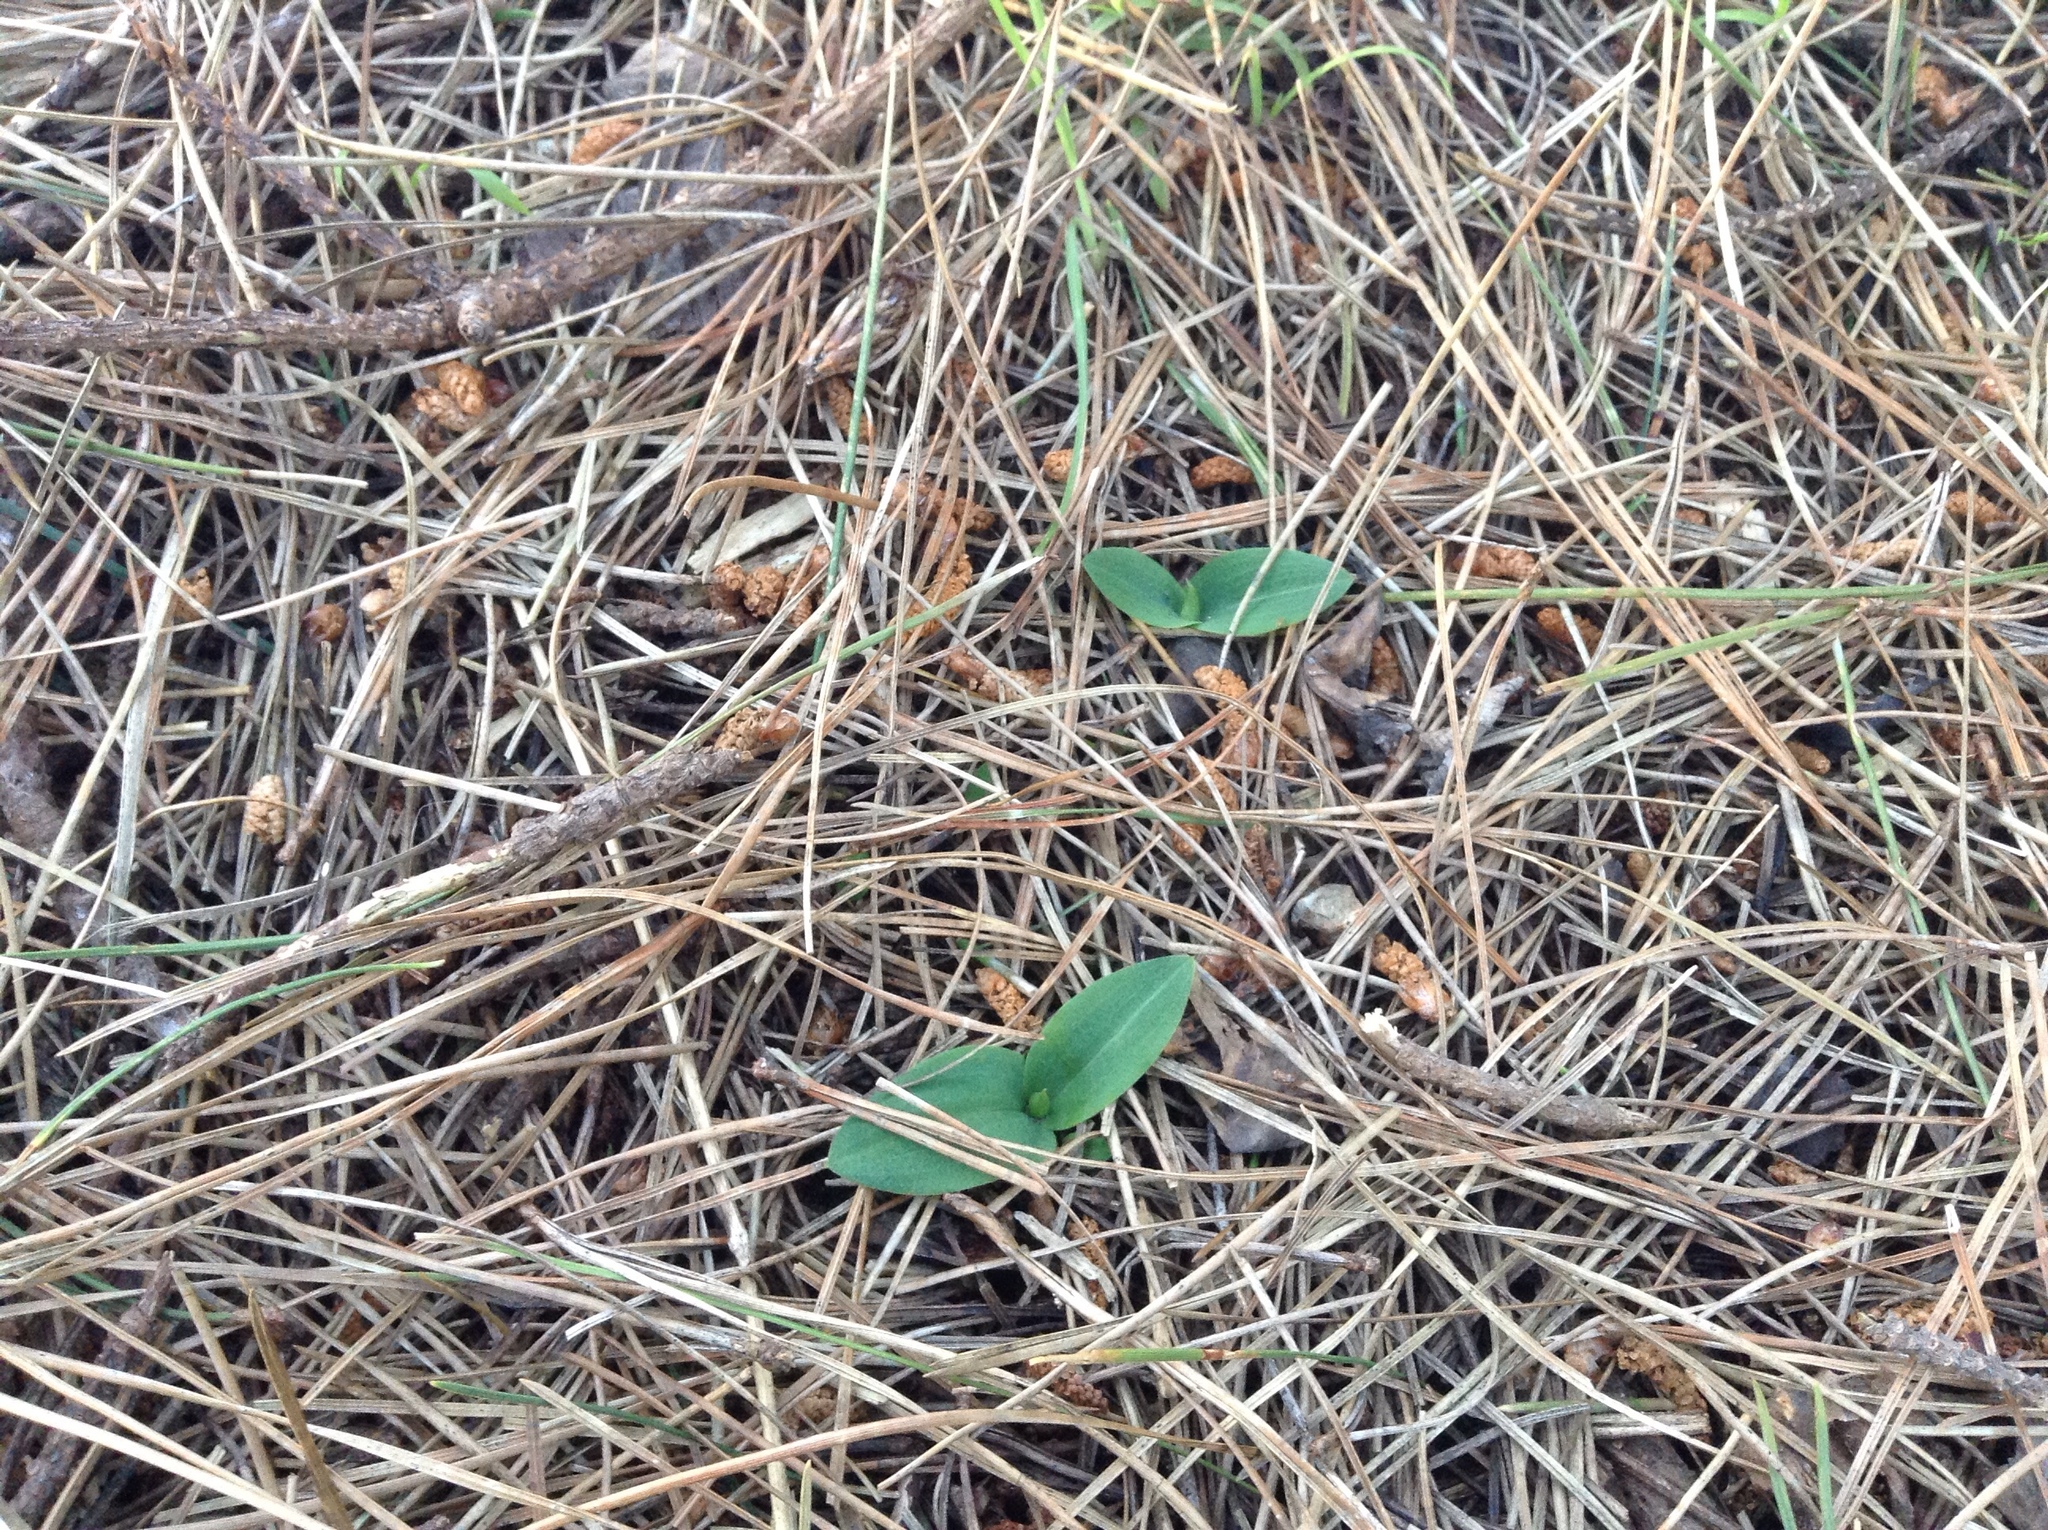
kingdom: Plantae
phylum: Tracheophyta
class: Liliopsida
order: Asparagales
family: Orchidaceae
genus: Chiloglottis
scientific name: Chiloglottis cornuta
